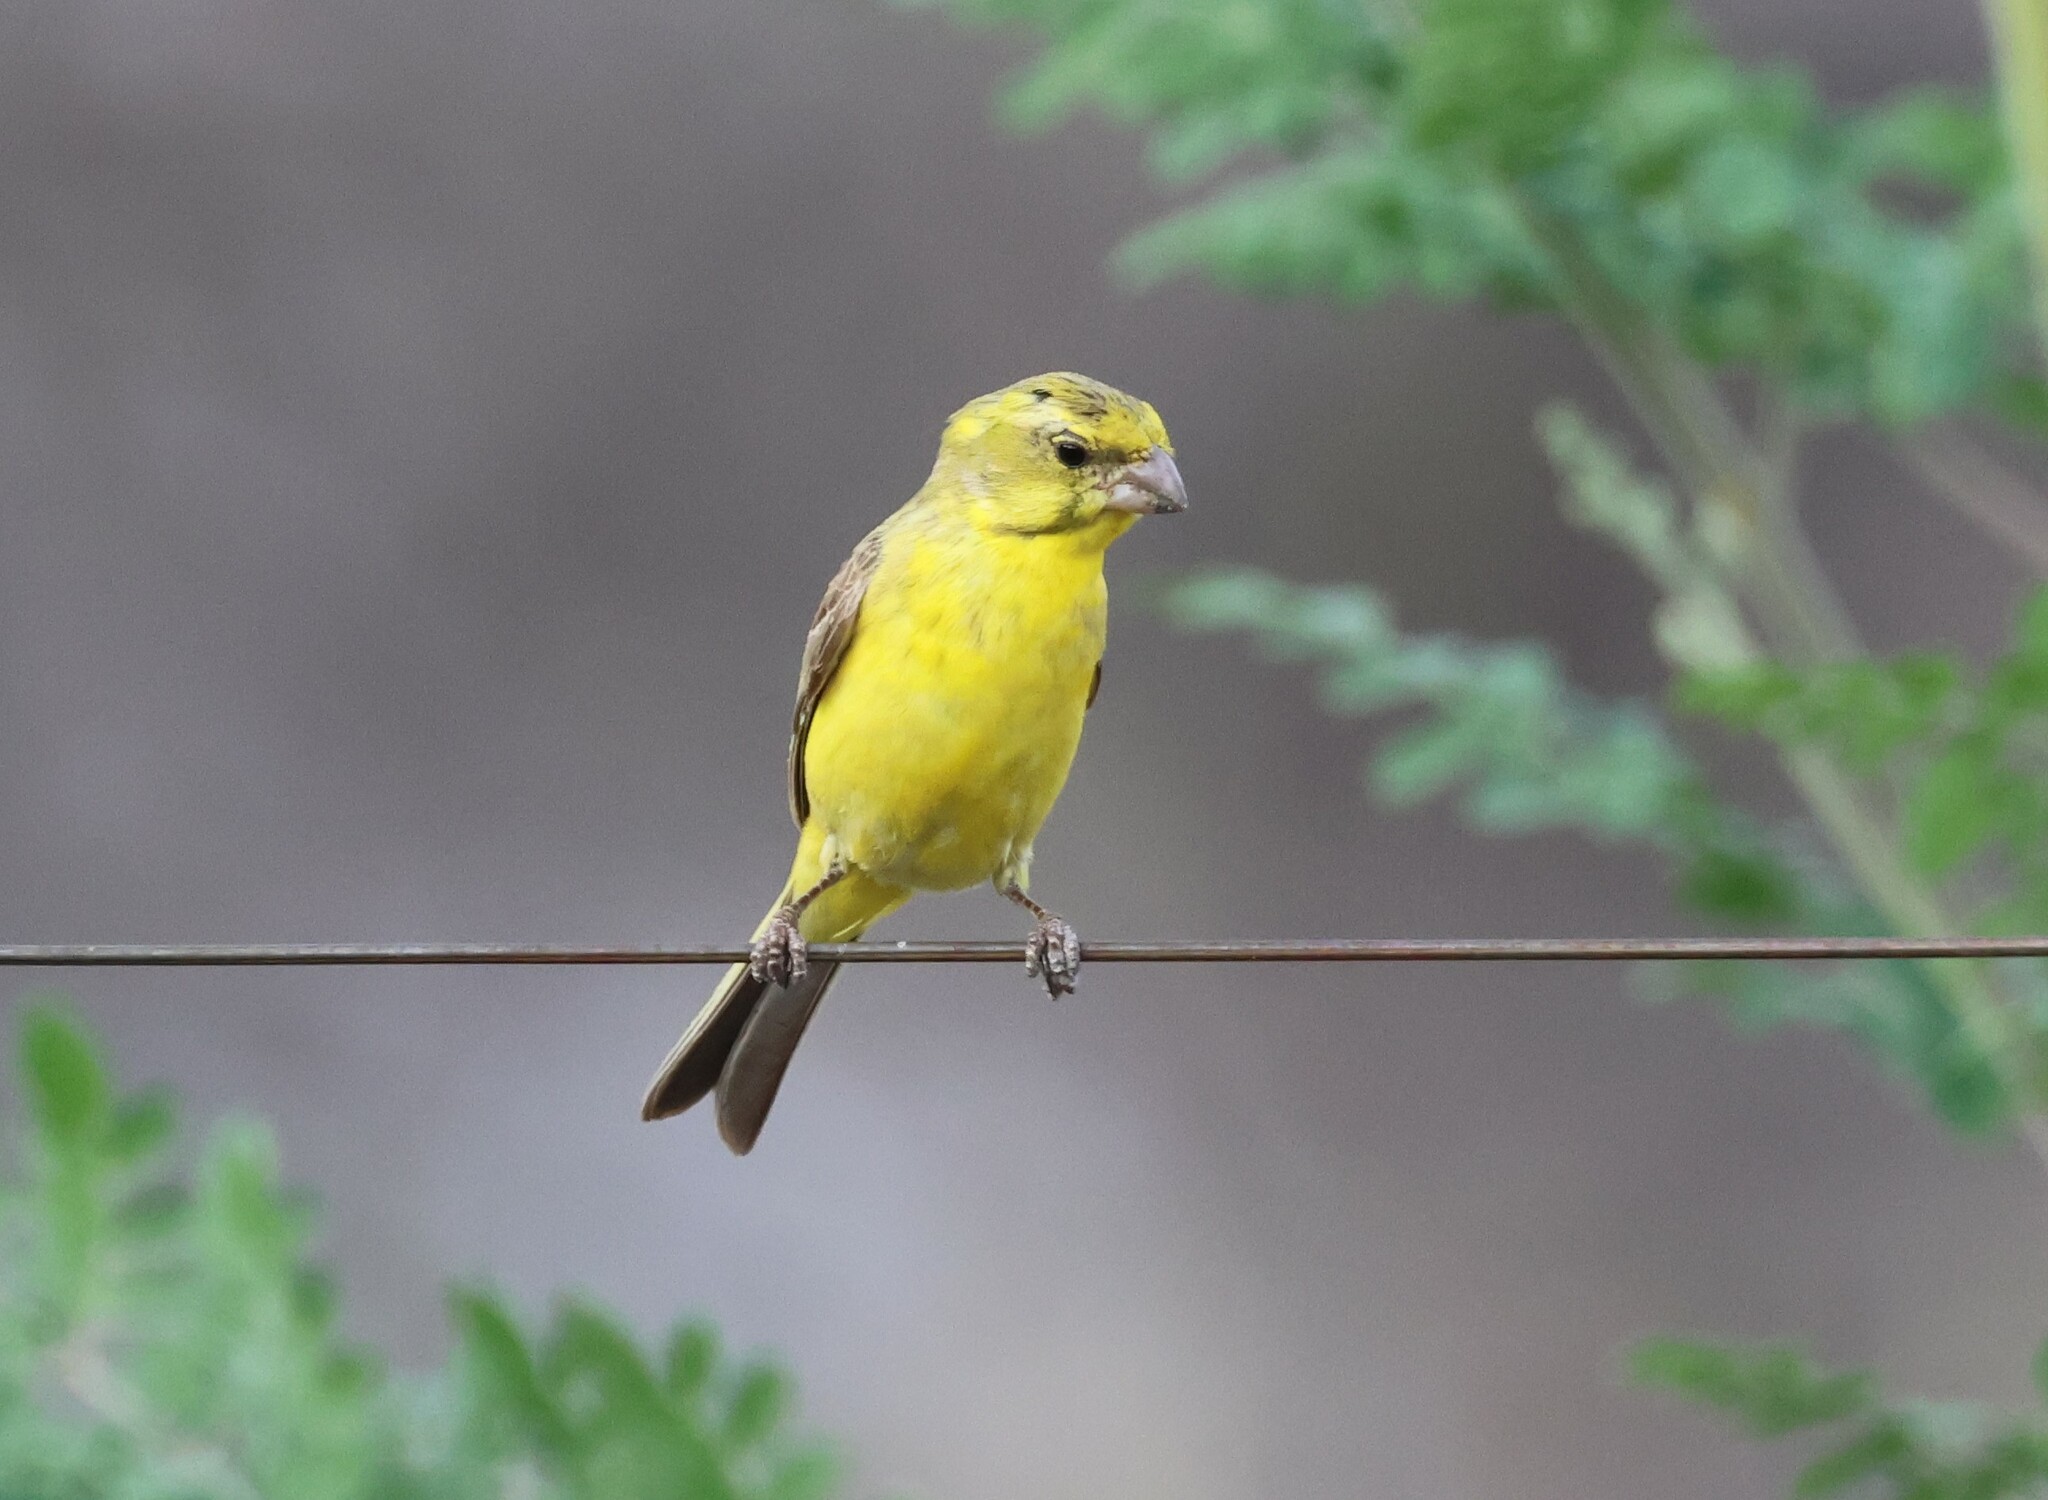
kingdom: Animalia
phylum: Chordata
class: Aves
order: Passeriformes
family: Fringillidae
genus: Crithagra
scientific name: Crithagra flaviventris
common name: Yellow canary
